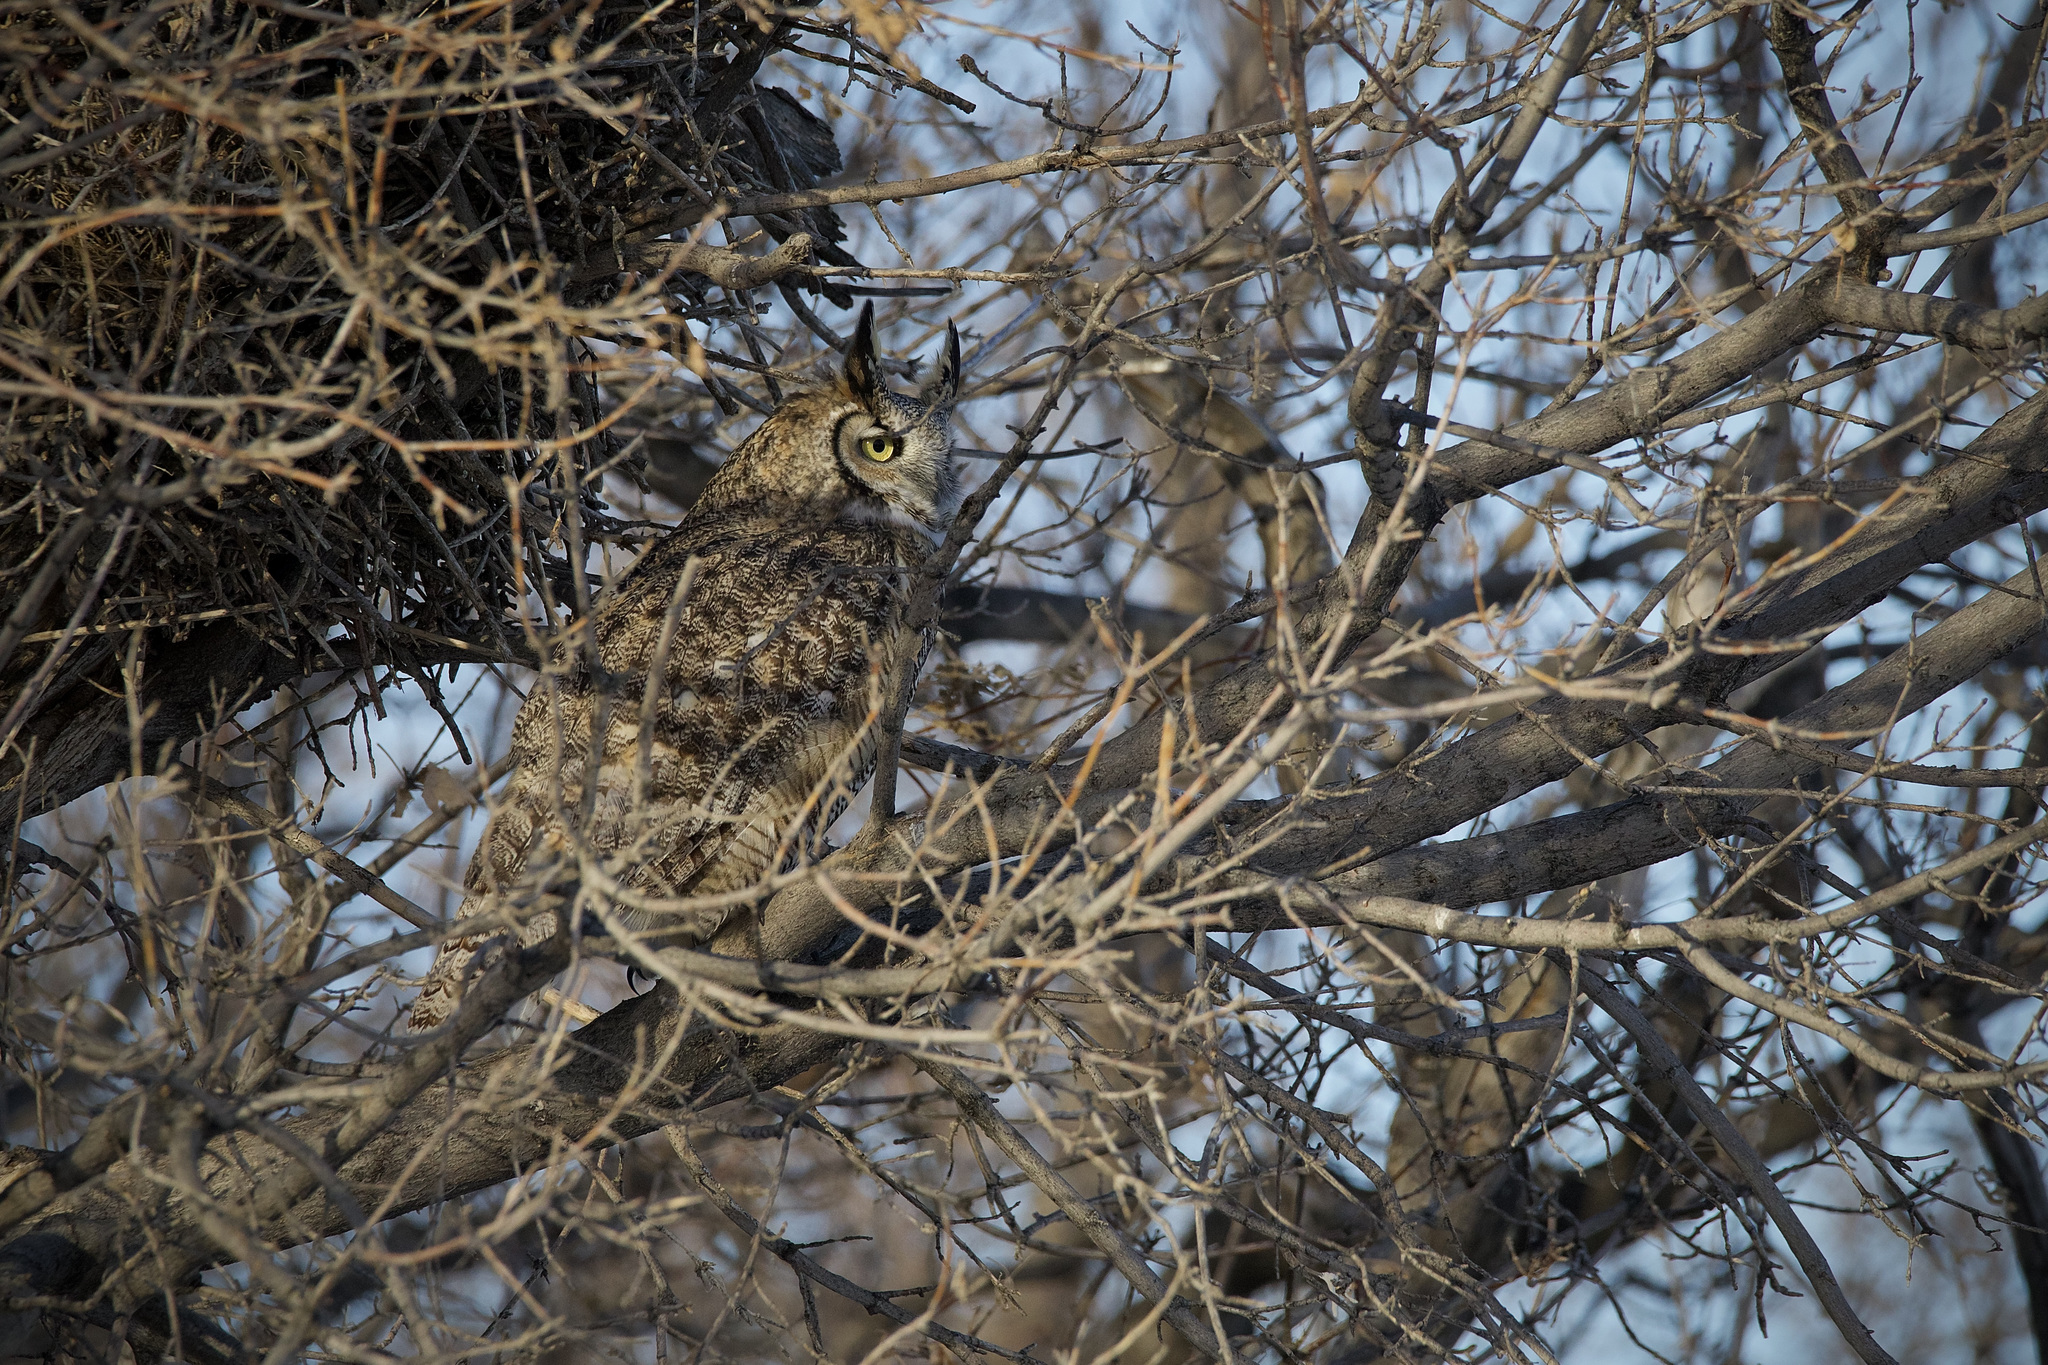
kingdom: Animalia
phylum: Chordata
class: Aves
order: Strigiformes
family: Strigidae
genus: Bubo
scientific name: Bubo virginianus
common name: Great horned owl
